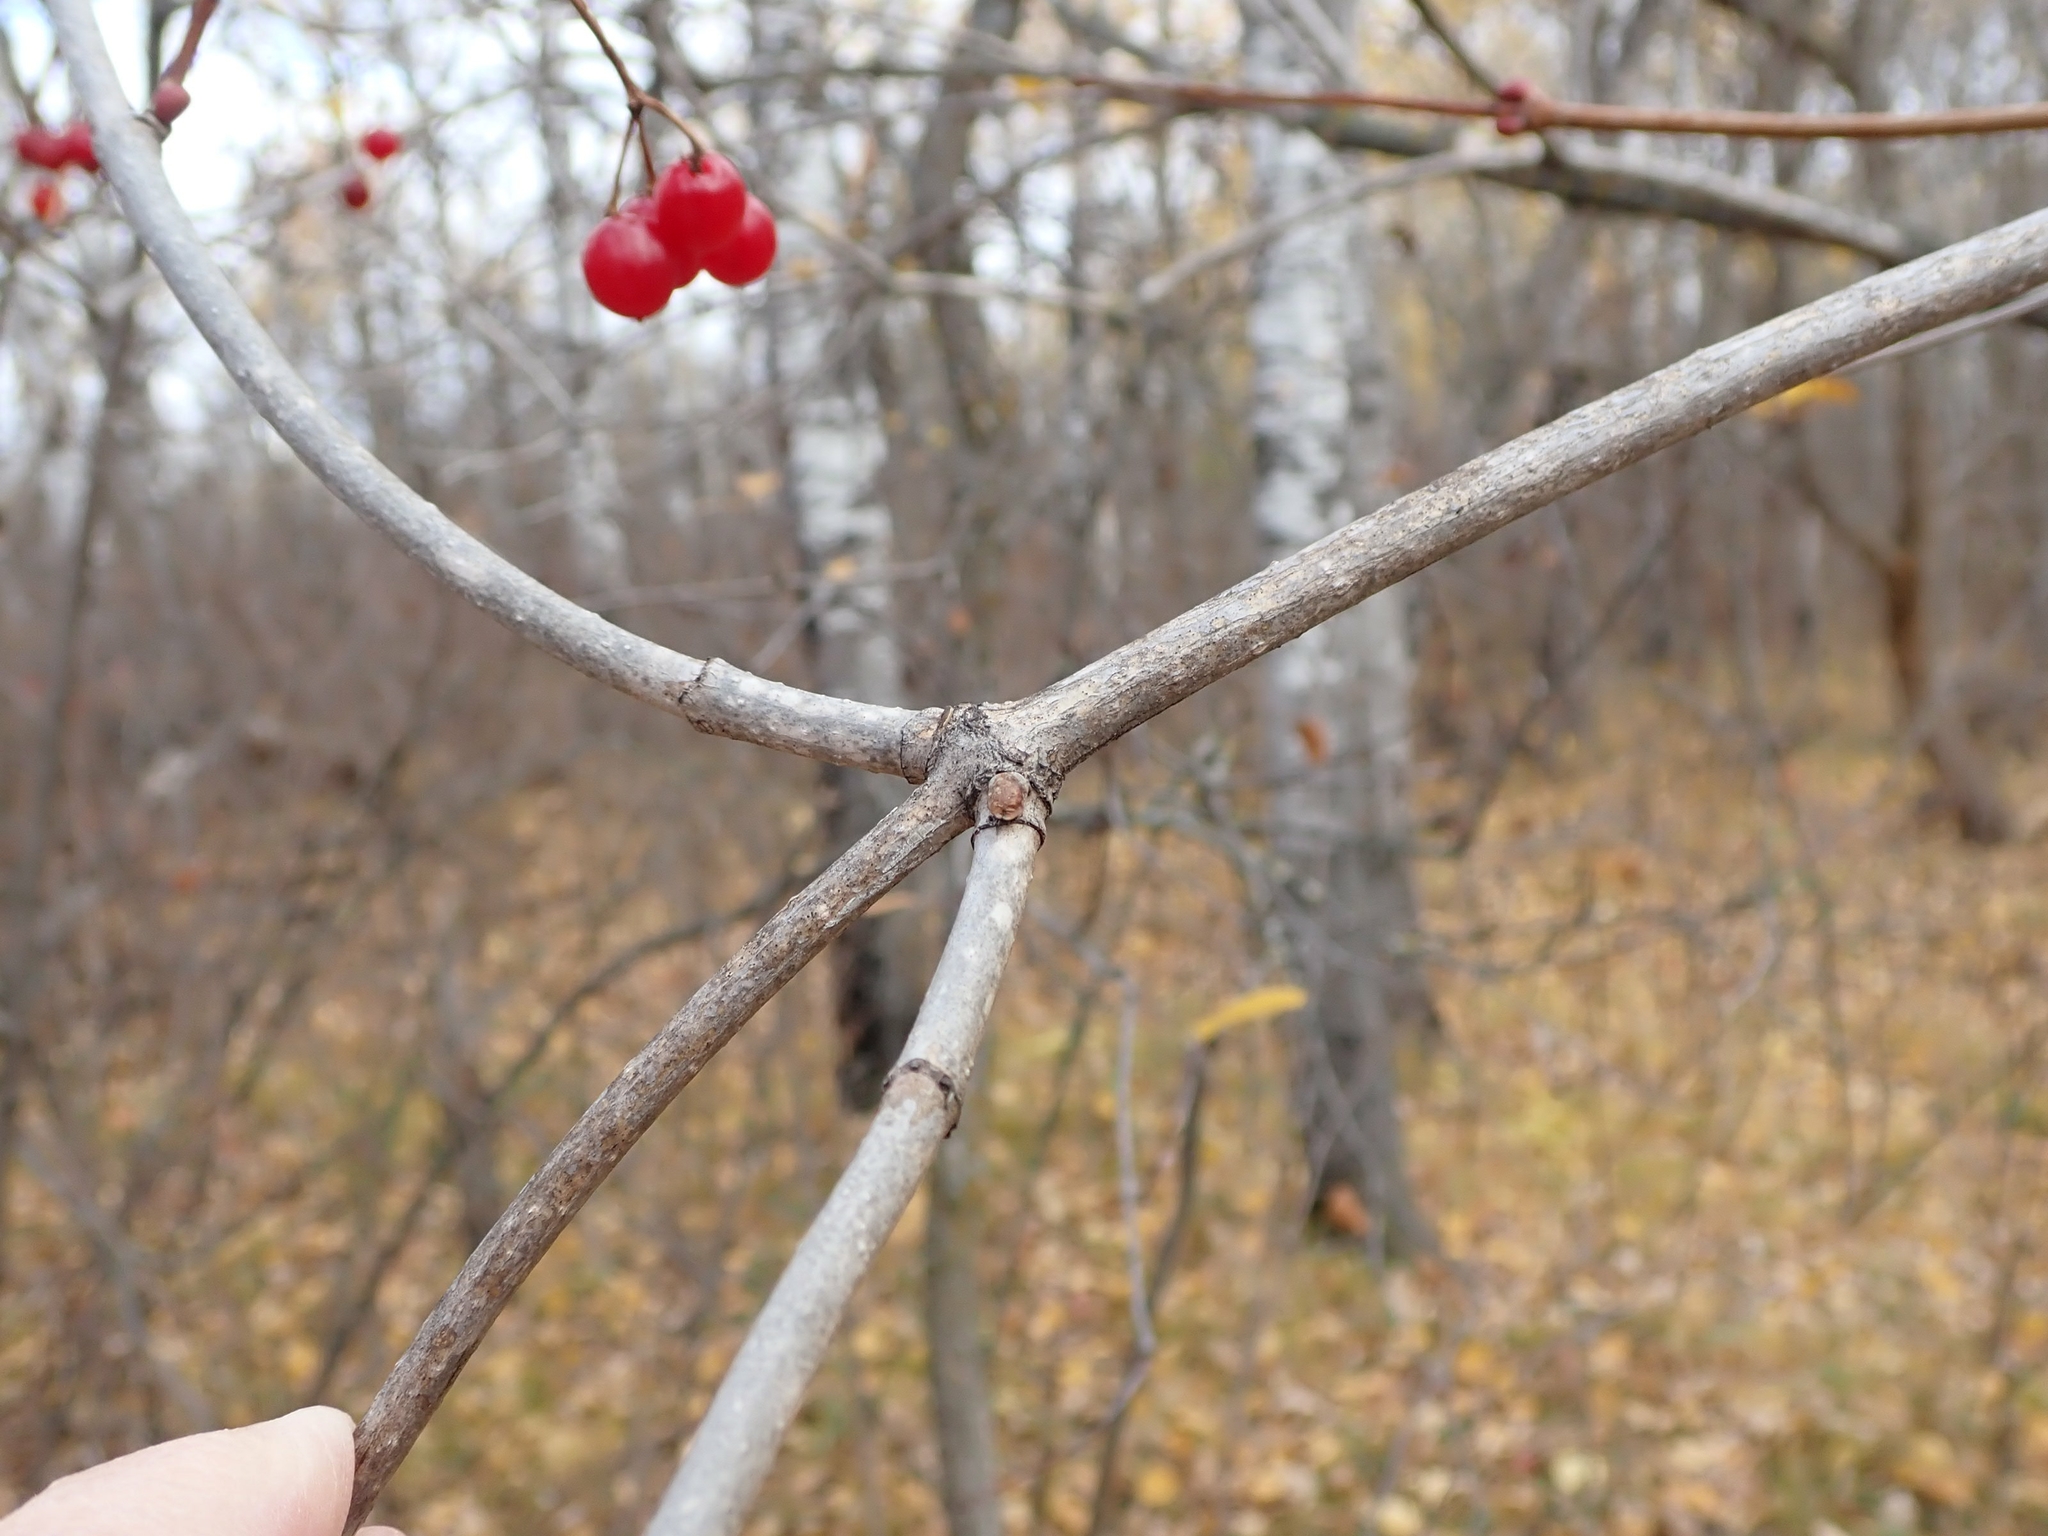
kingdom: Plantae
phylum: Tracheophyta
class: Magnoliopsida
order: Dipsacales
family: Viburnaceae
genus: Viburnum
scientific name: Viburnum trilobum
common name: American cranberrybush
